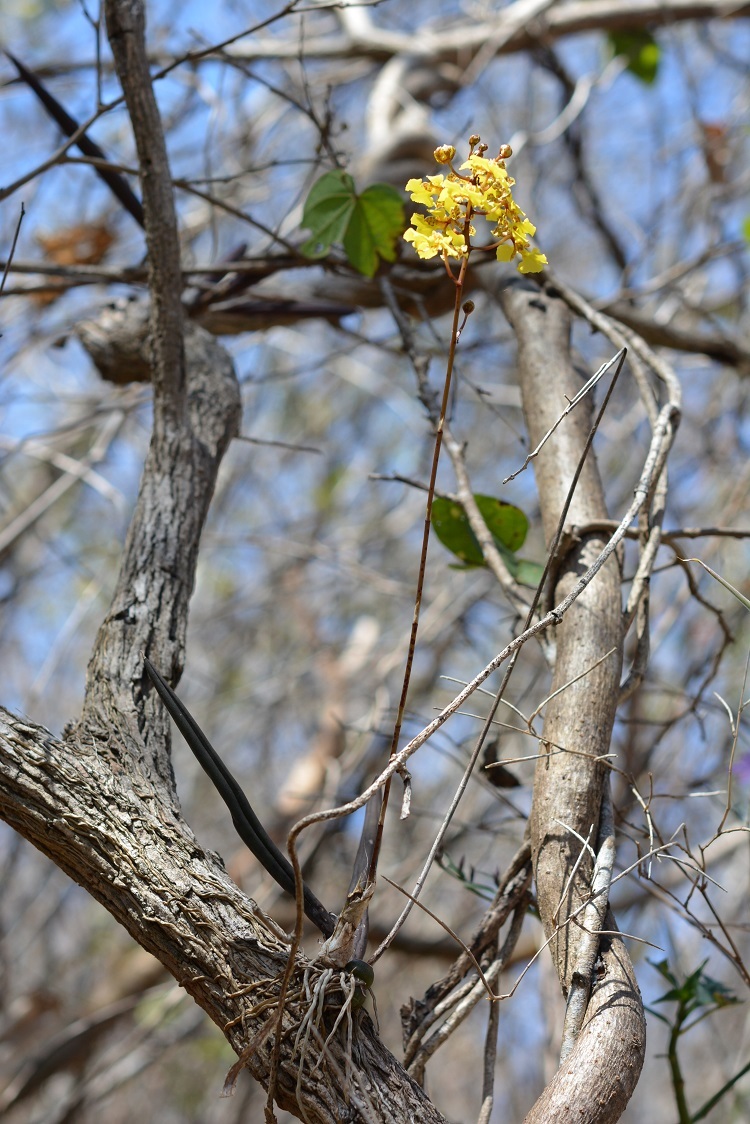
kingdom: Plantae
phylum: Tracheophyta
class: Liliopsida
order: Asparagales
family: Orchidaceae
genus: Trichocentrum
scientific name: Trichocentrum cebolleta
